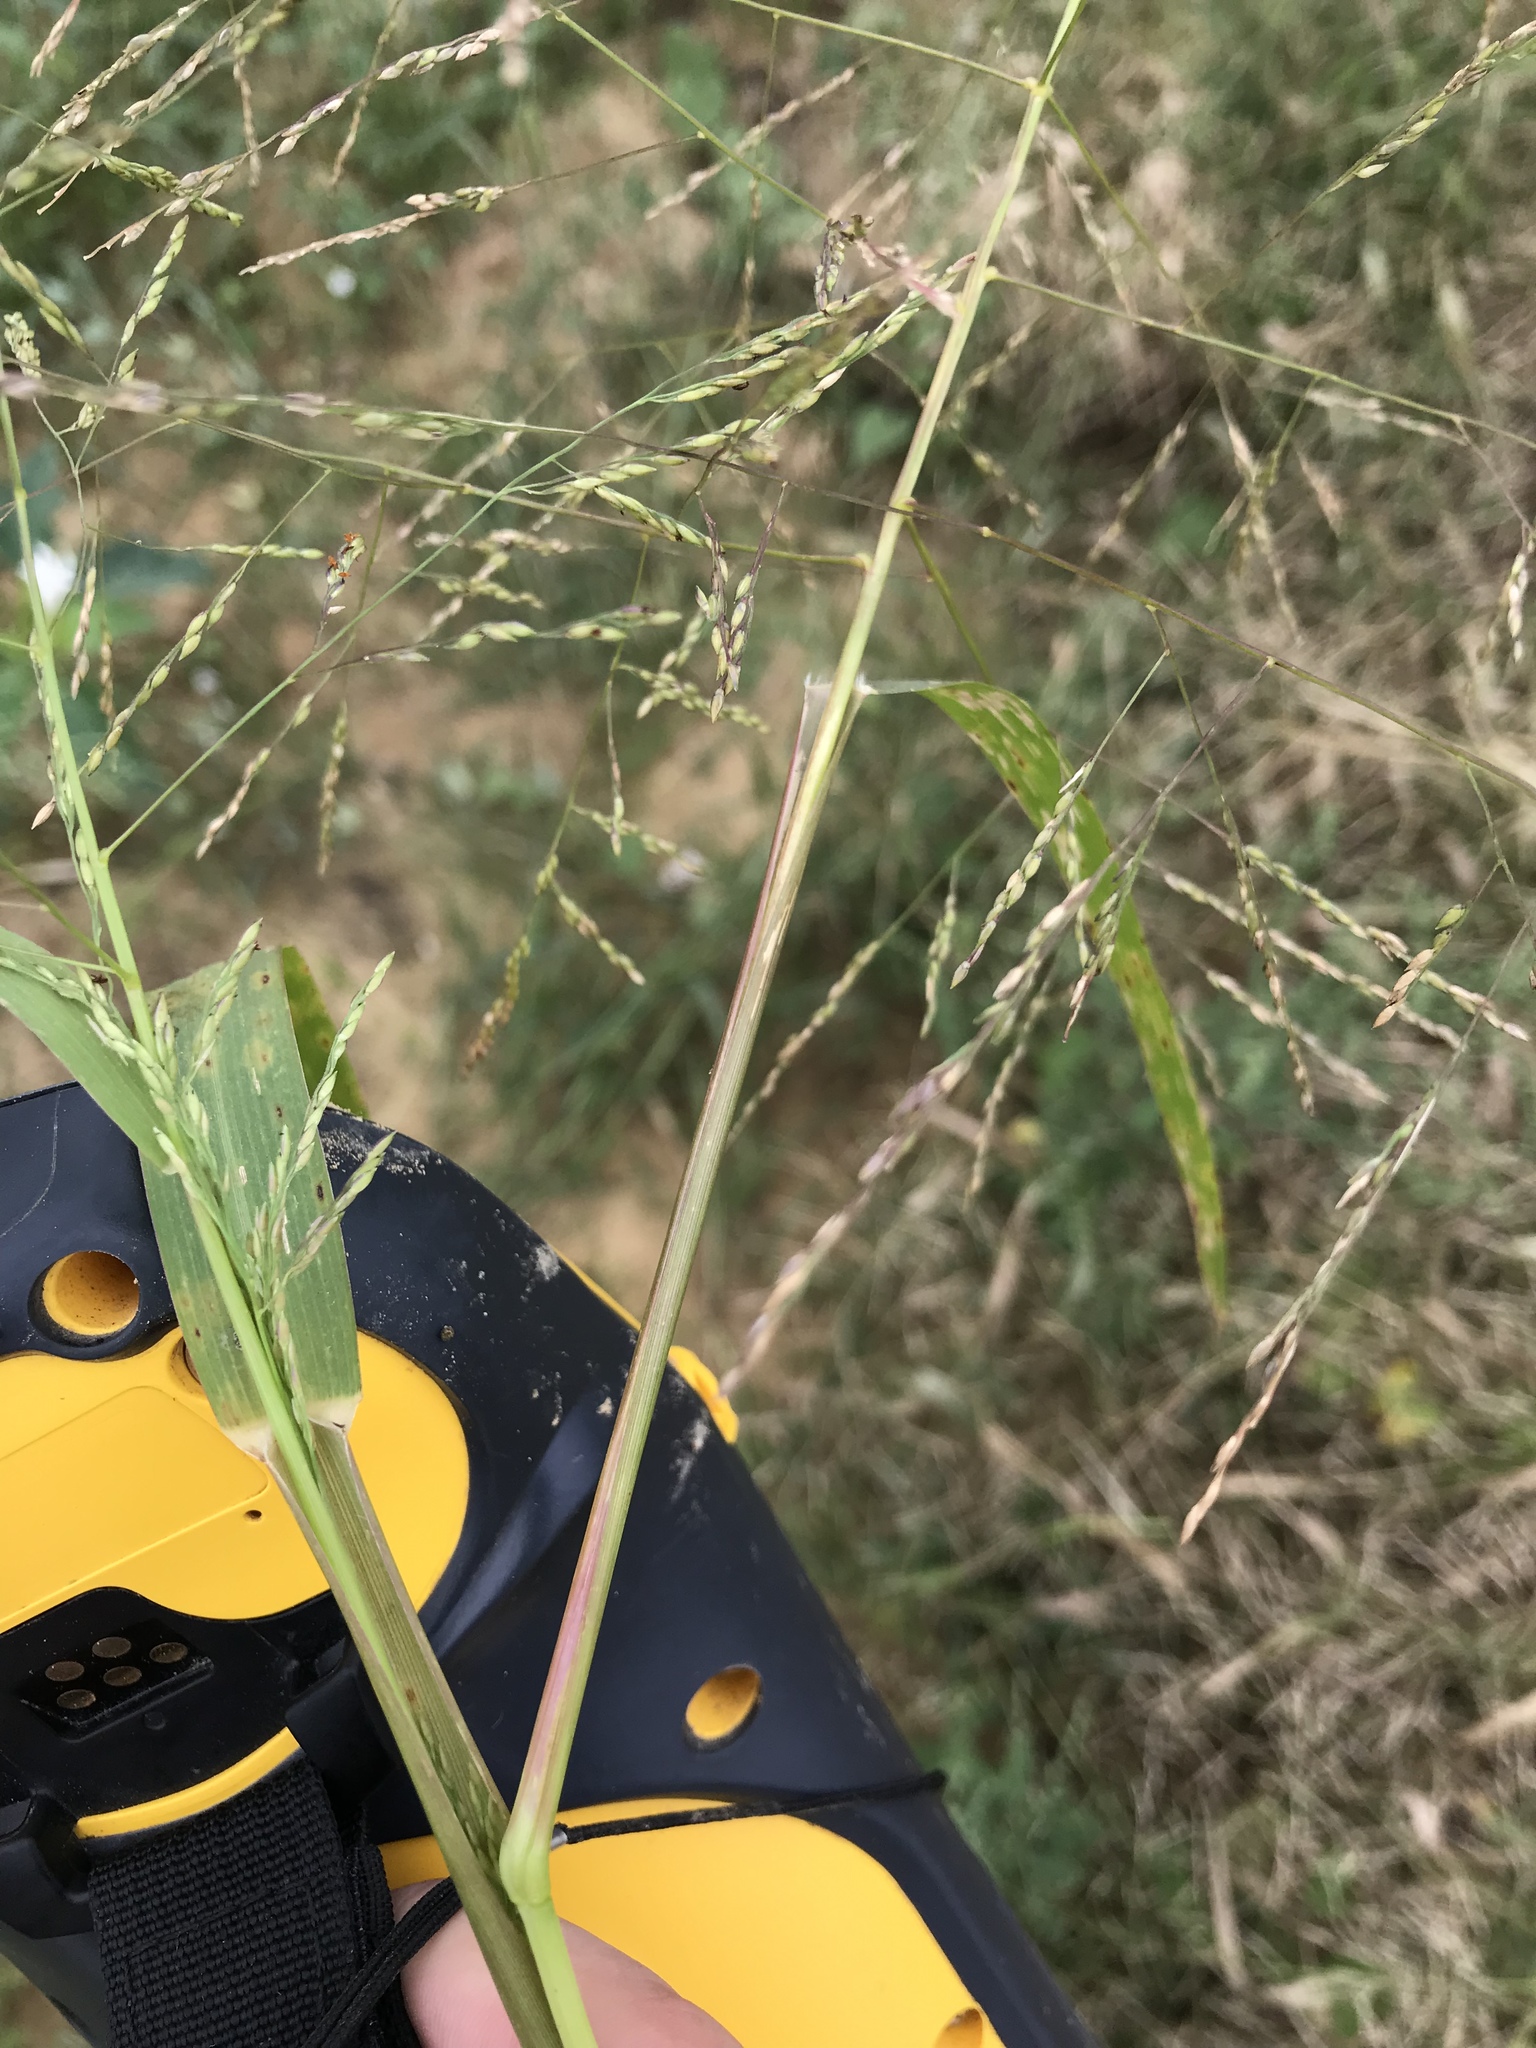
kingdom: Plantae
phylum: Tracheophyta
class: Liliopsida
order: Poales
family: Poaceae
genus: Panicum
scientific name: Panicum virgatum
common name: Switchgrass
